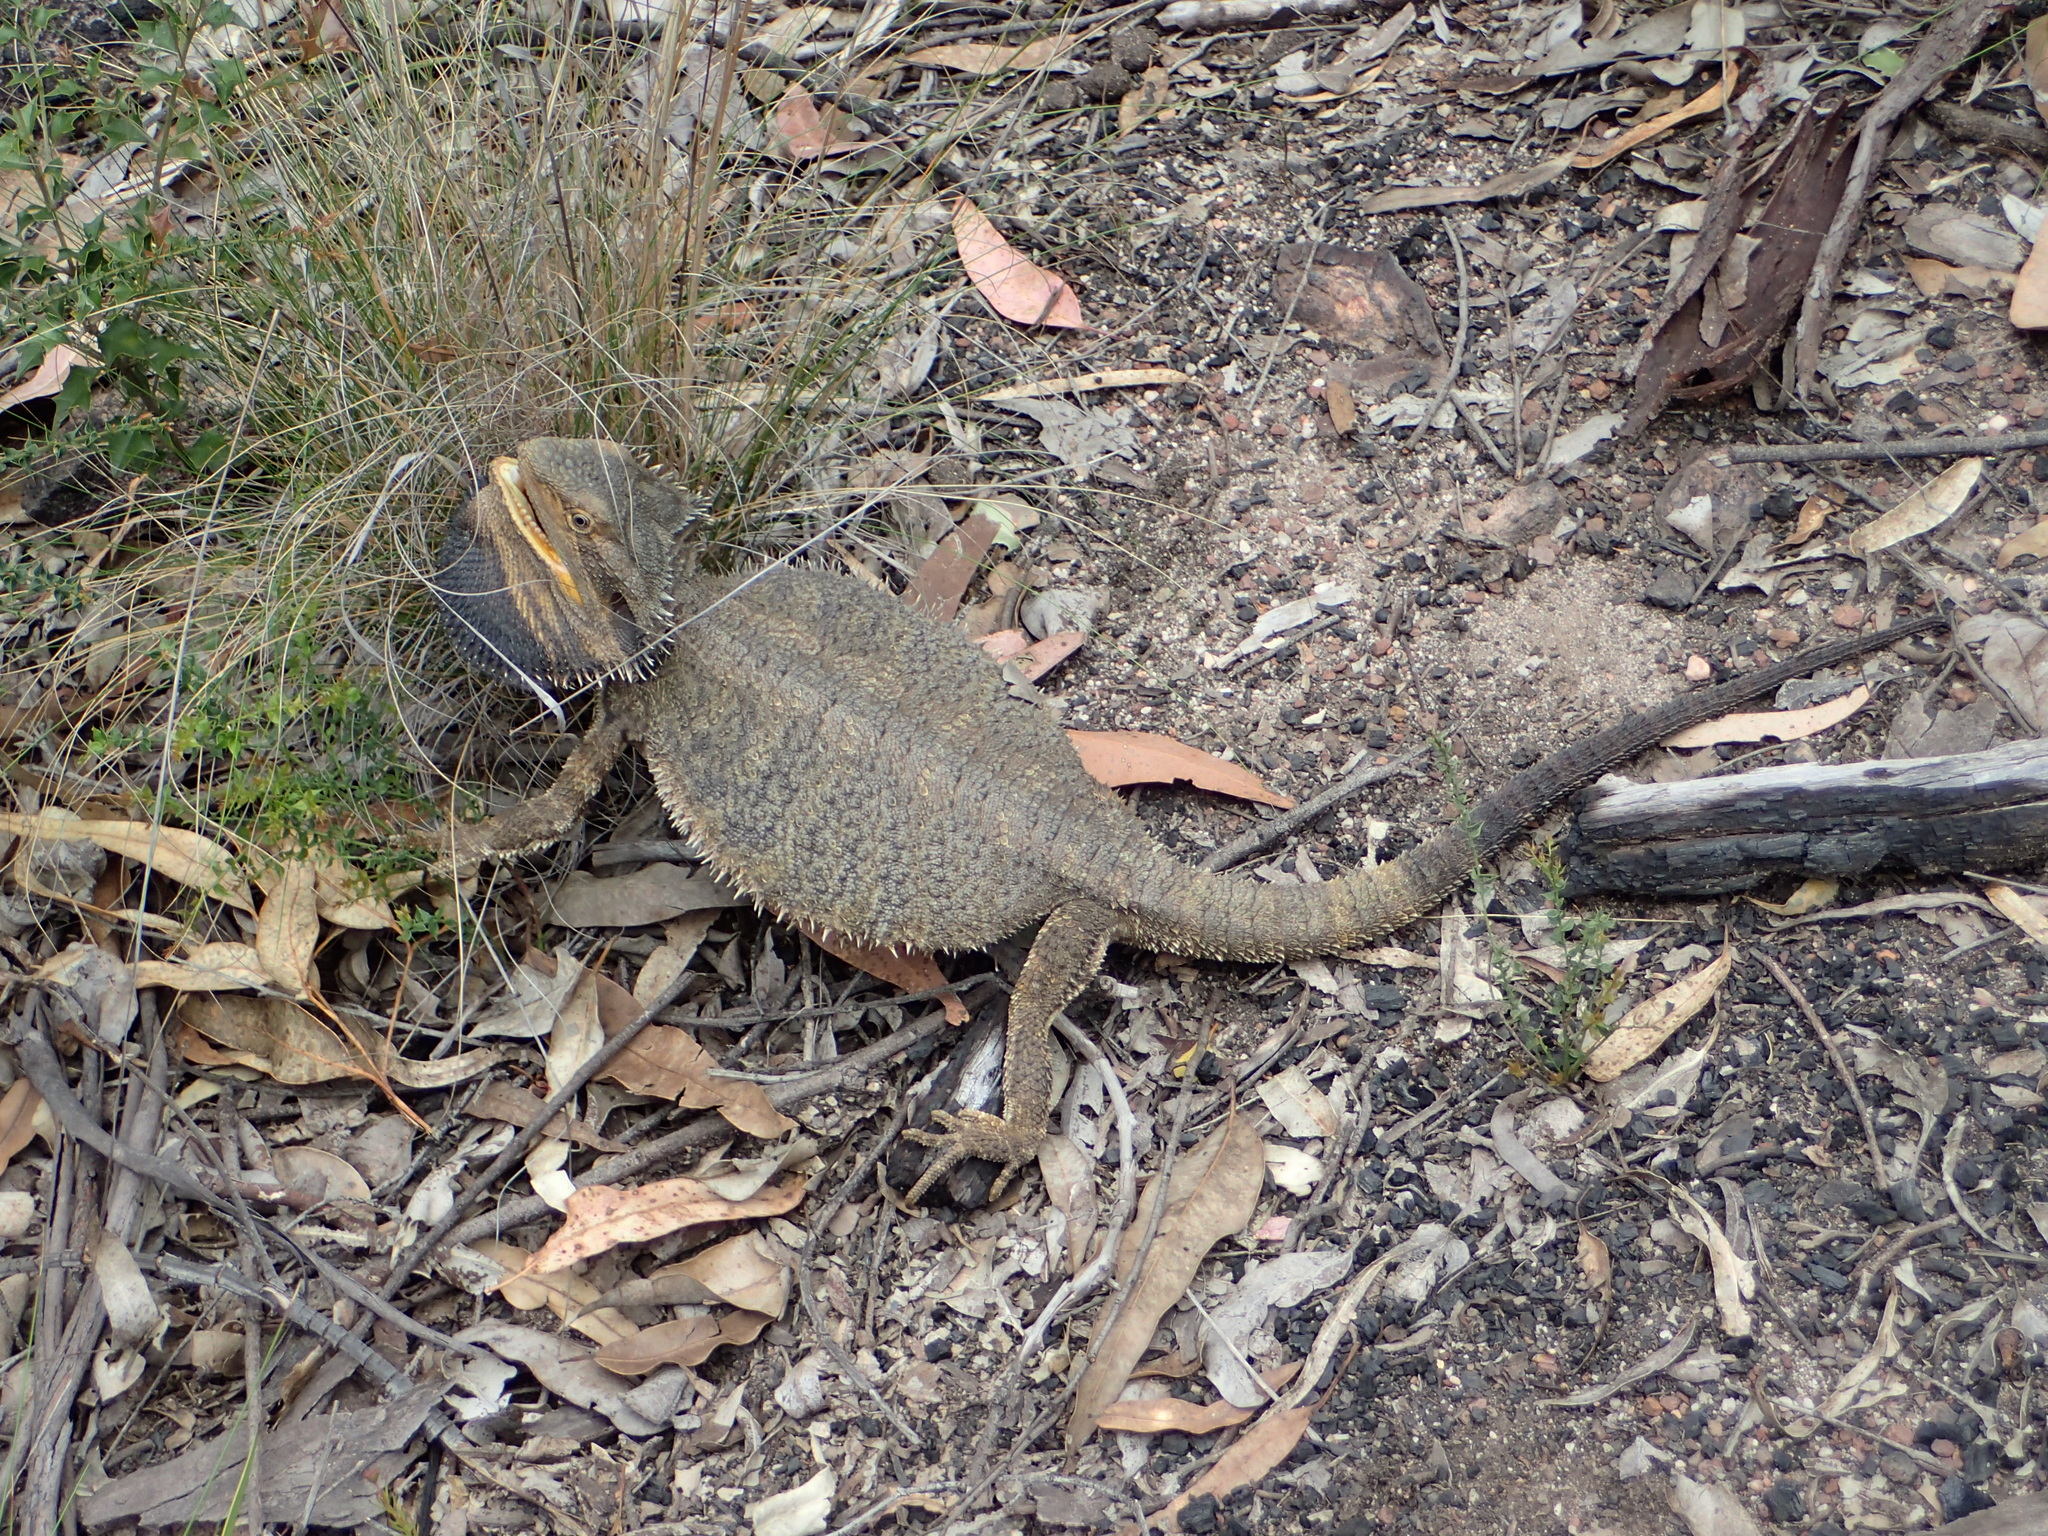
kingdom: Animalia
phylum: Chordata
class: Squamata
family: Agamidae
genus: Pogona
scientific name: Pogona barbata
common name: Bearded dragon
